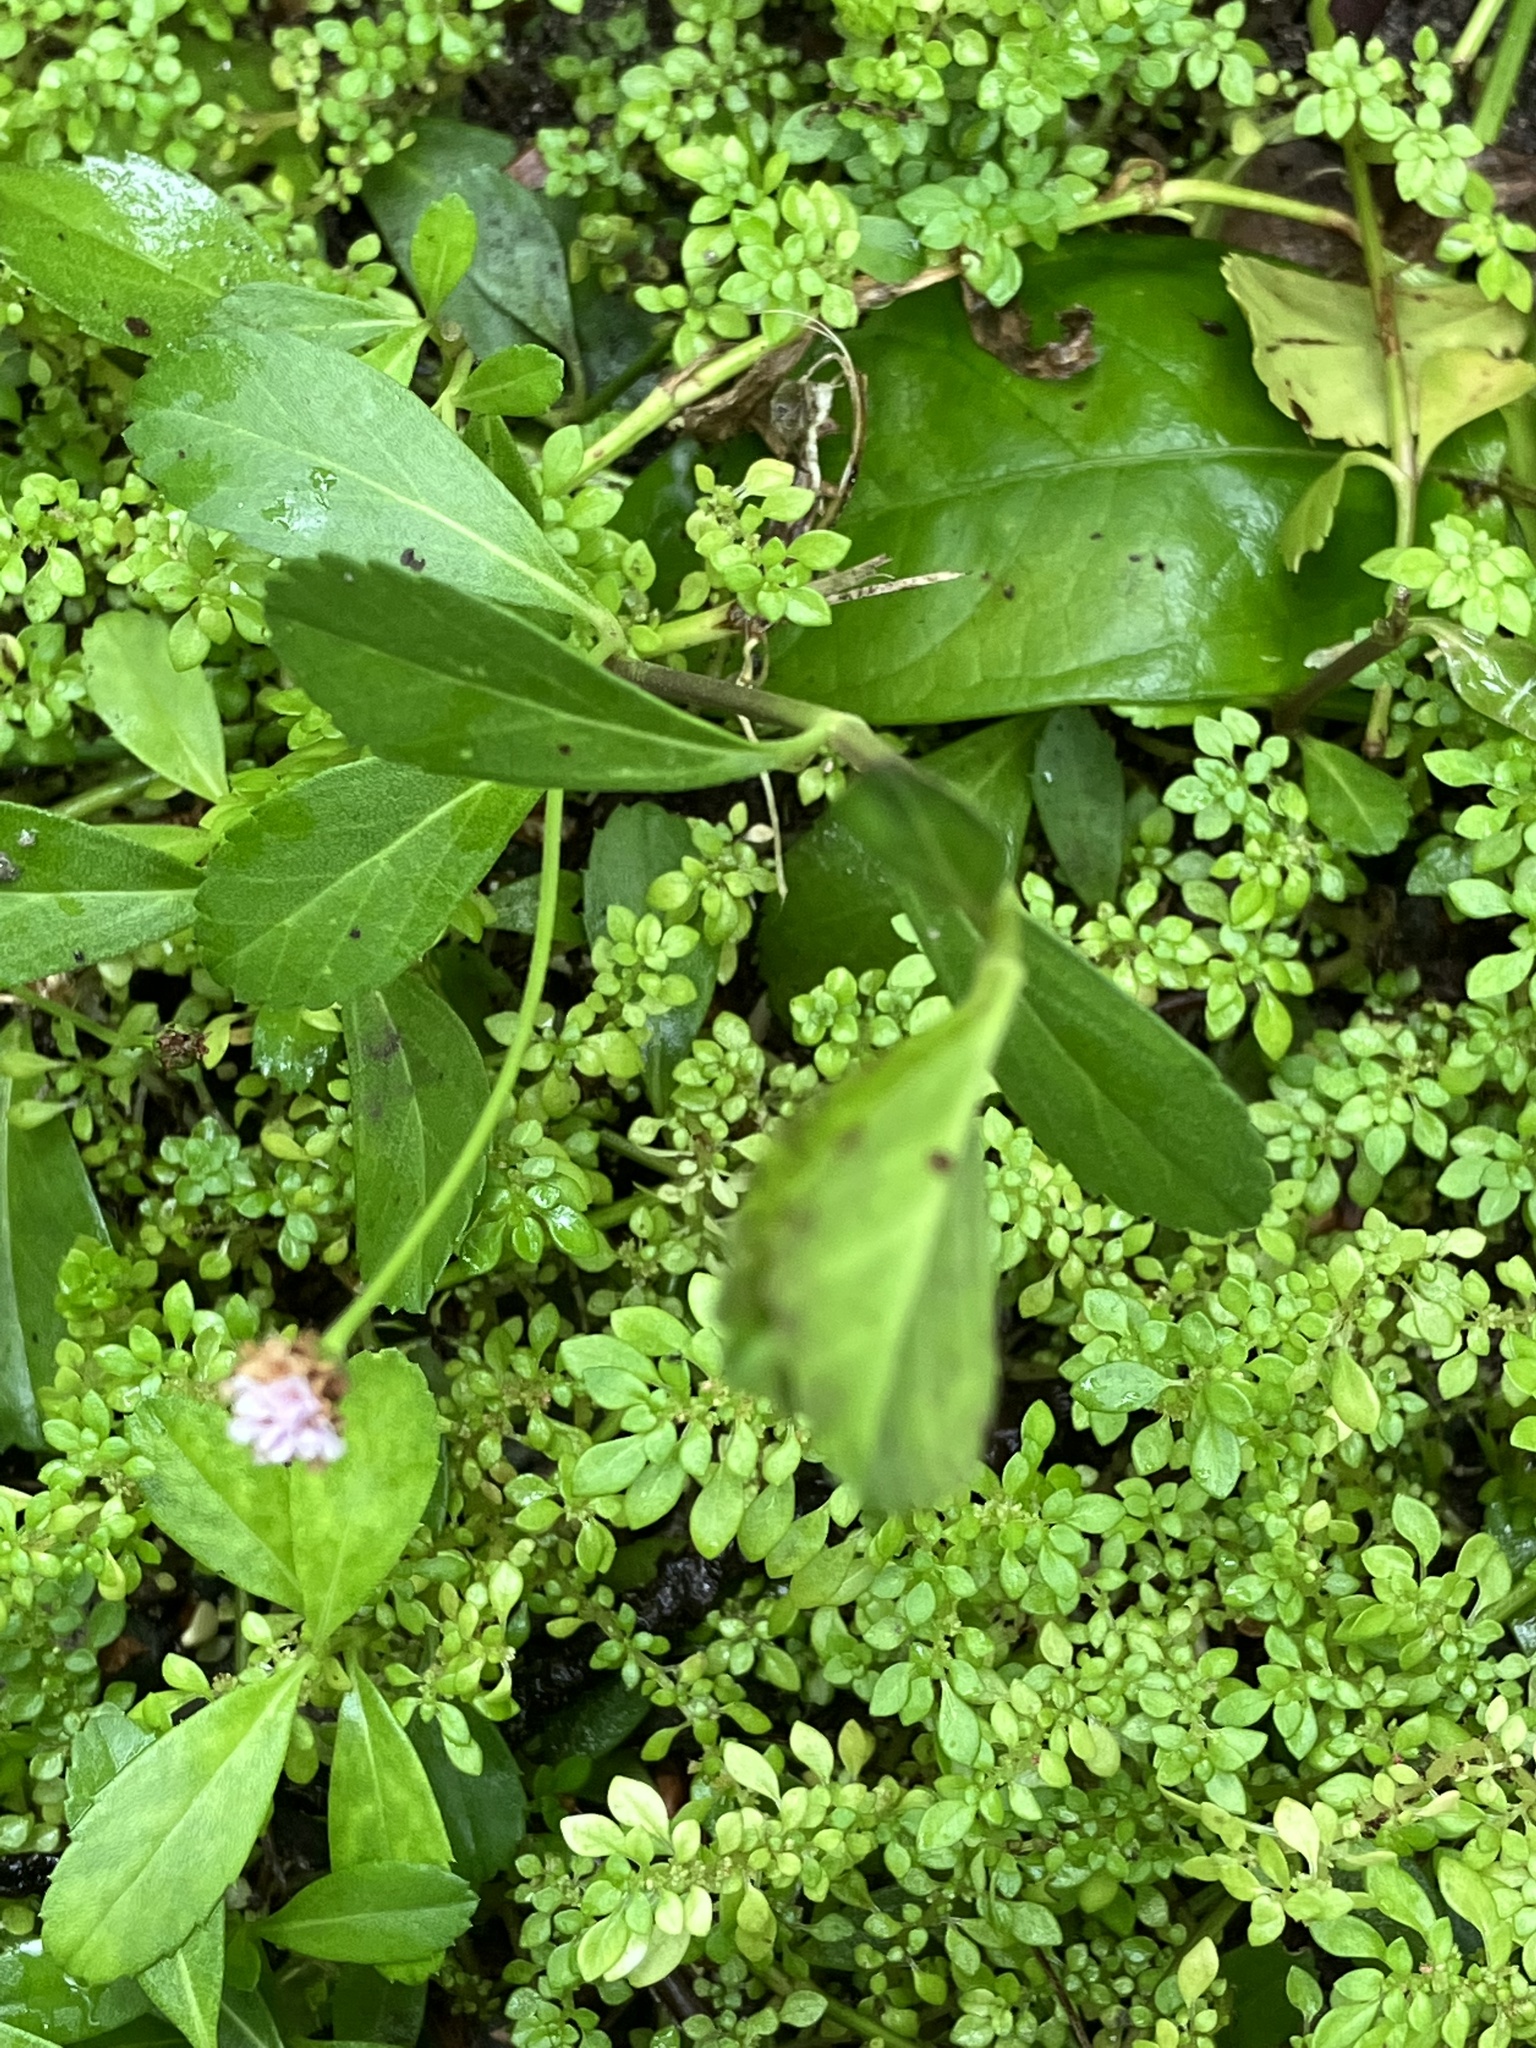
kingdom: Plantae
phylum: Tracheophyta
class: Magnoliopsida
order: Lamiales
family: Verbenaceae
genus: Phyla
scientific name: Phyla nodiflora
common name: Frogfruit
